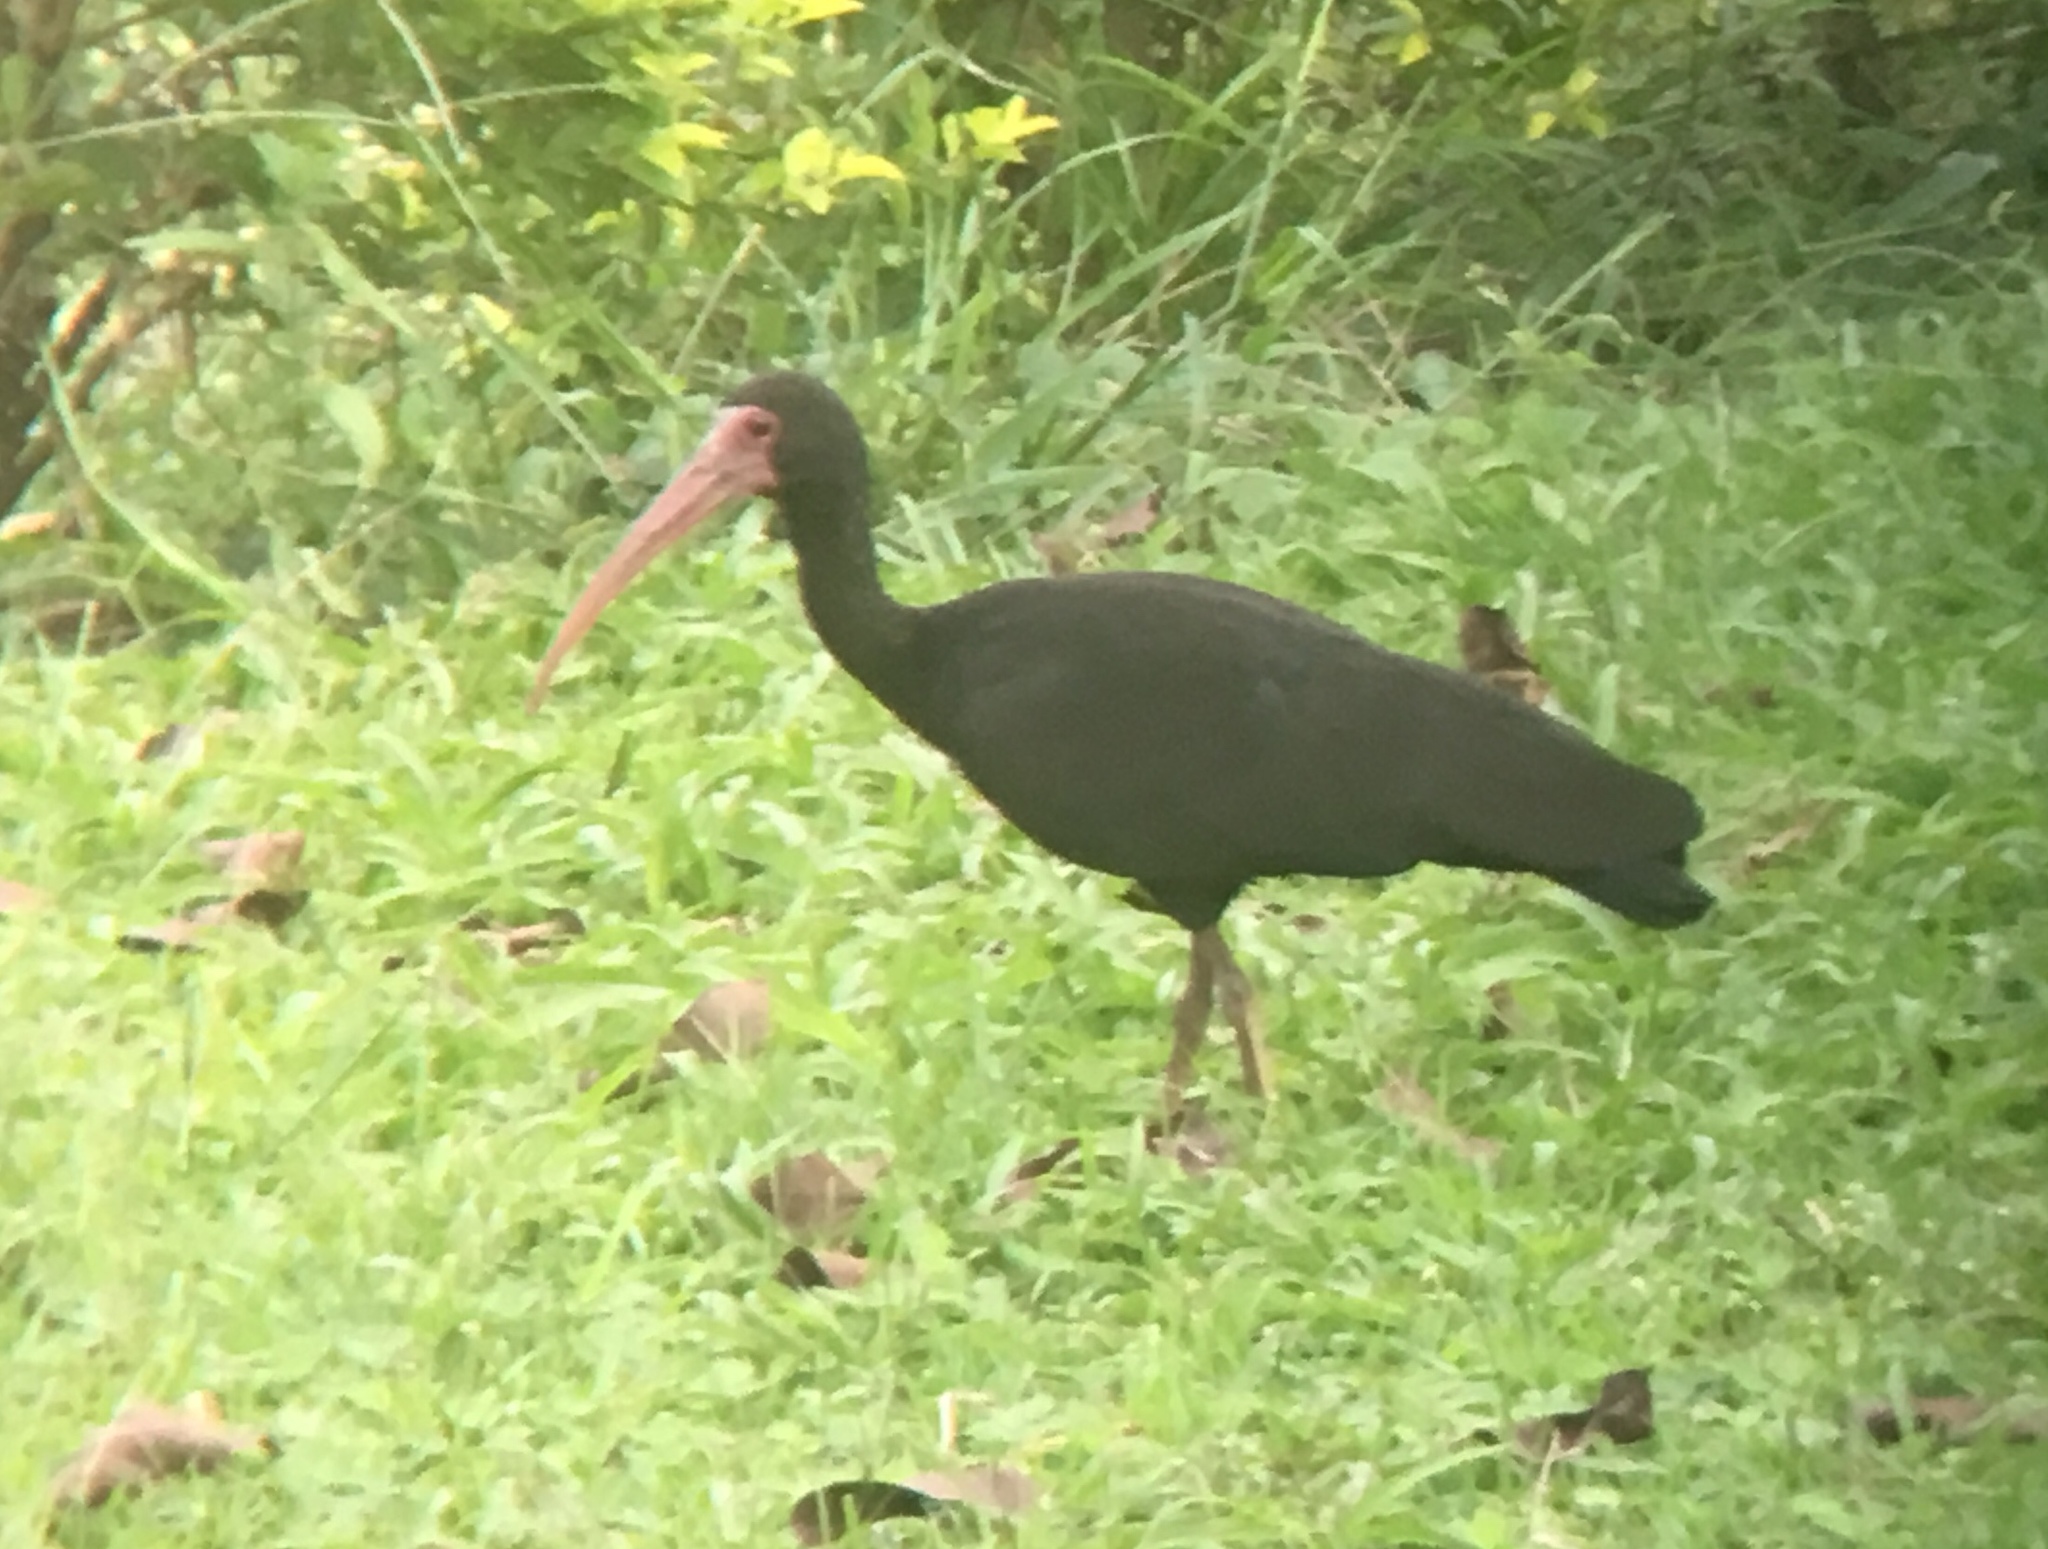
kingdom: Animalia
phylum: Chordata
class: Aves
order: Pelecaniformes
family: Threskiornithidae
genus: Phimosus
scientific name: Phimosus infuscatus
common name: Bare-faced ibis
